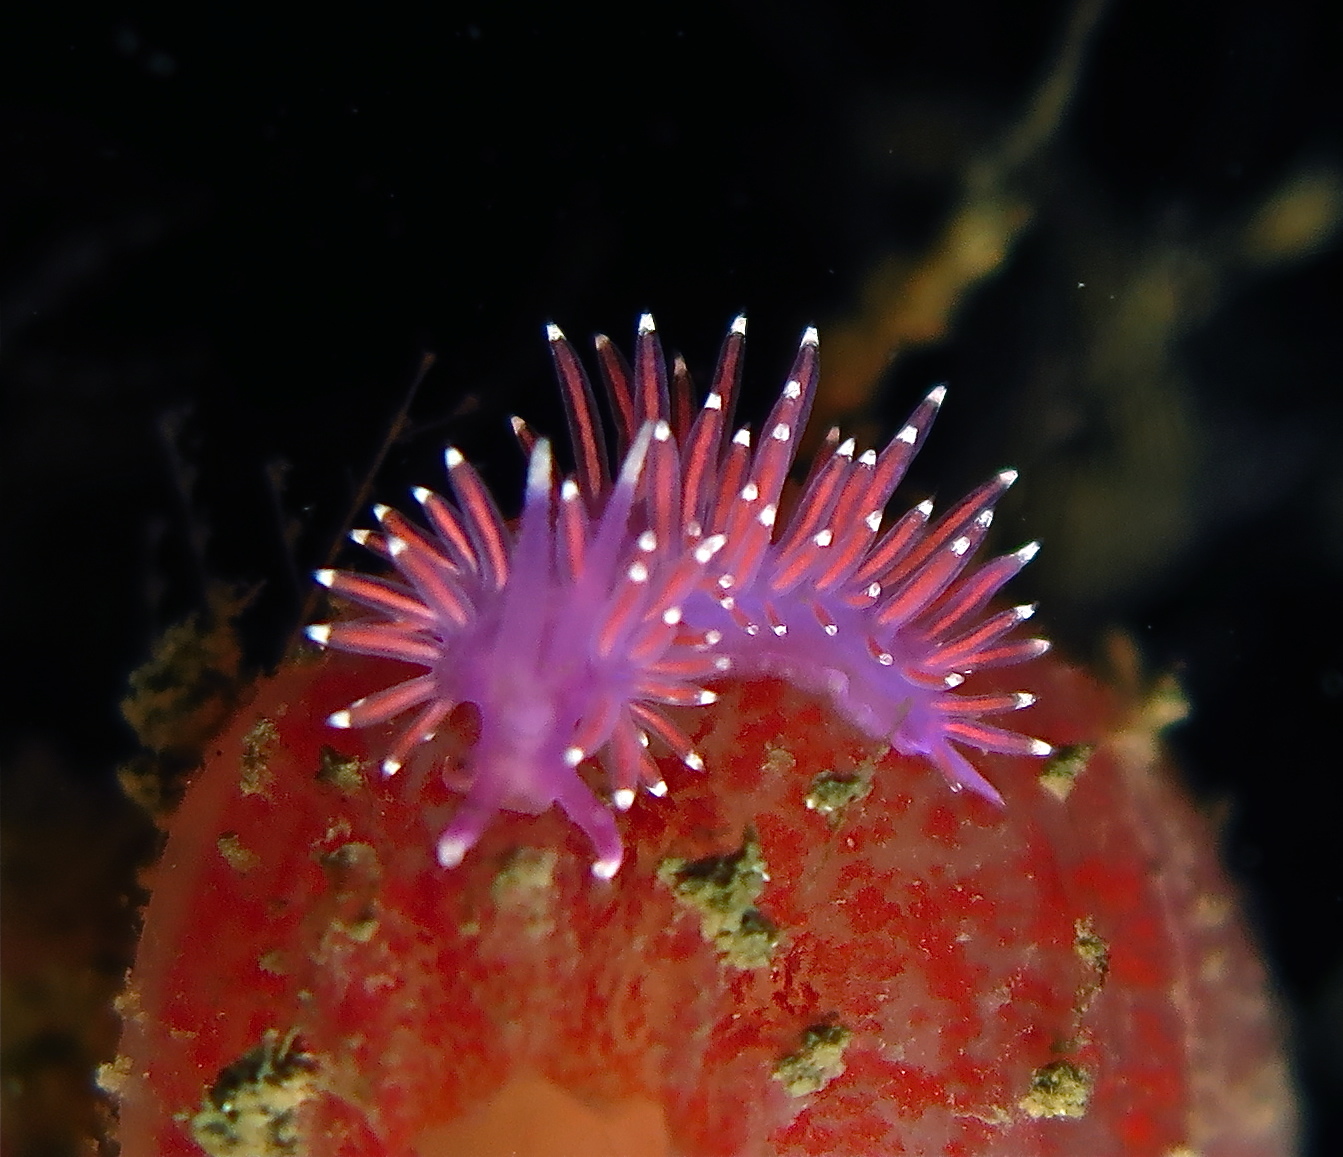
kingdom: Animalia
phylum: Mollusca
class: Gastropoda
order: Nudibranchia
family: Flabellinidae
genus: Edmundsella
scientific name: Edmundsella pedata
